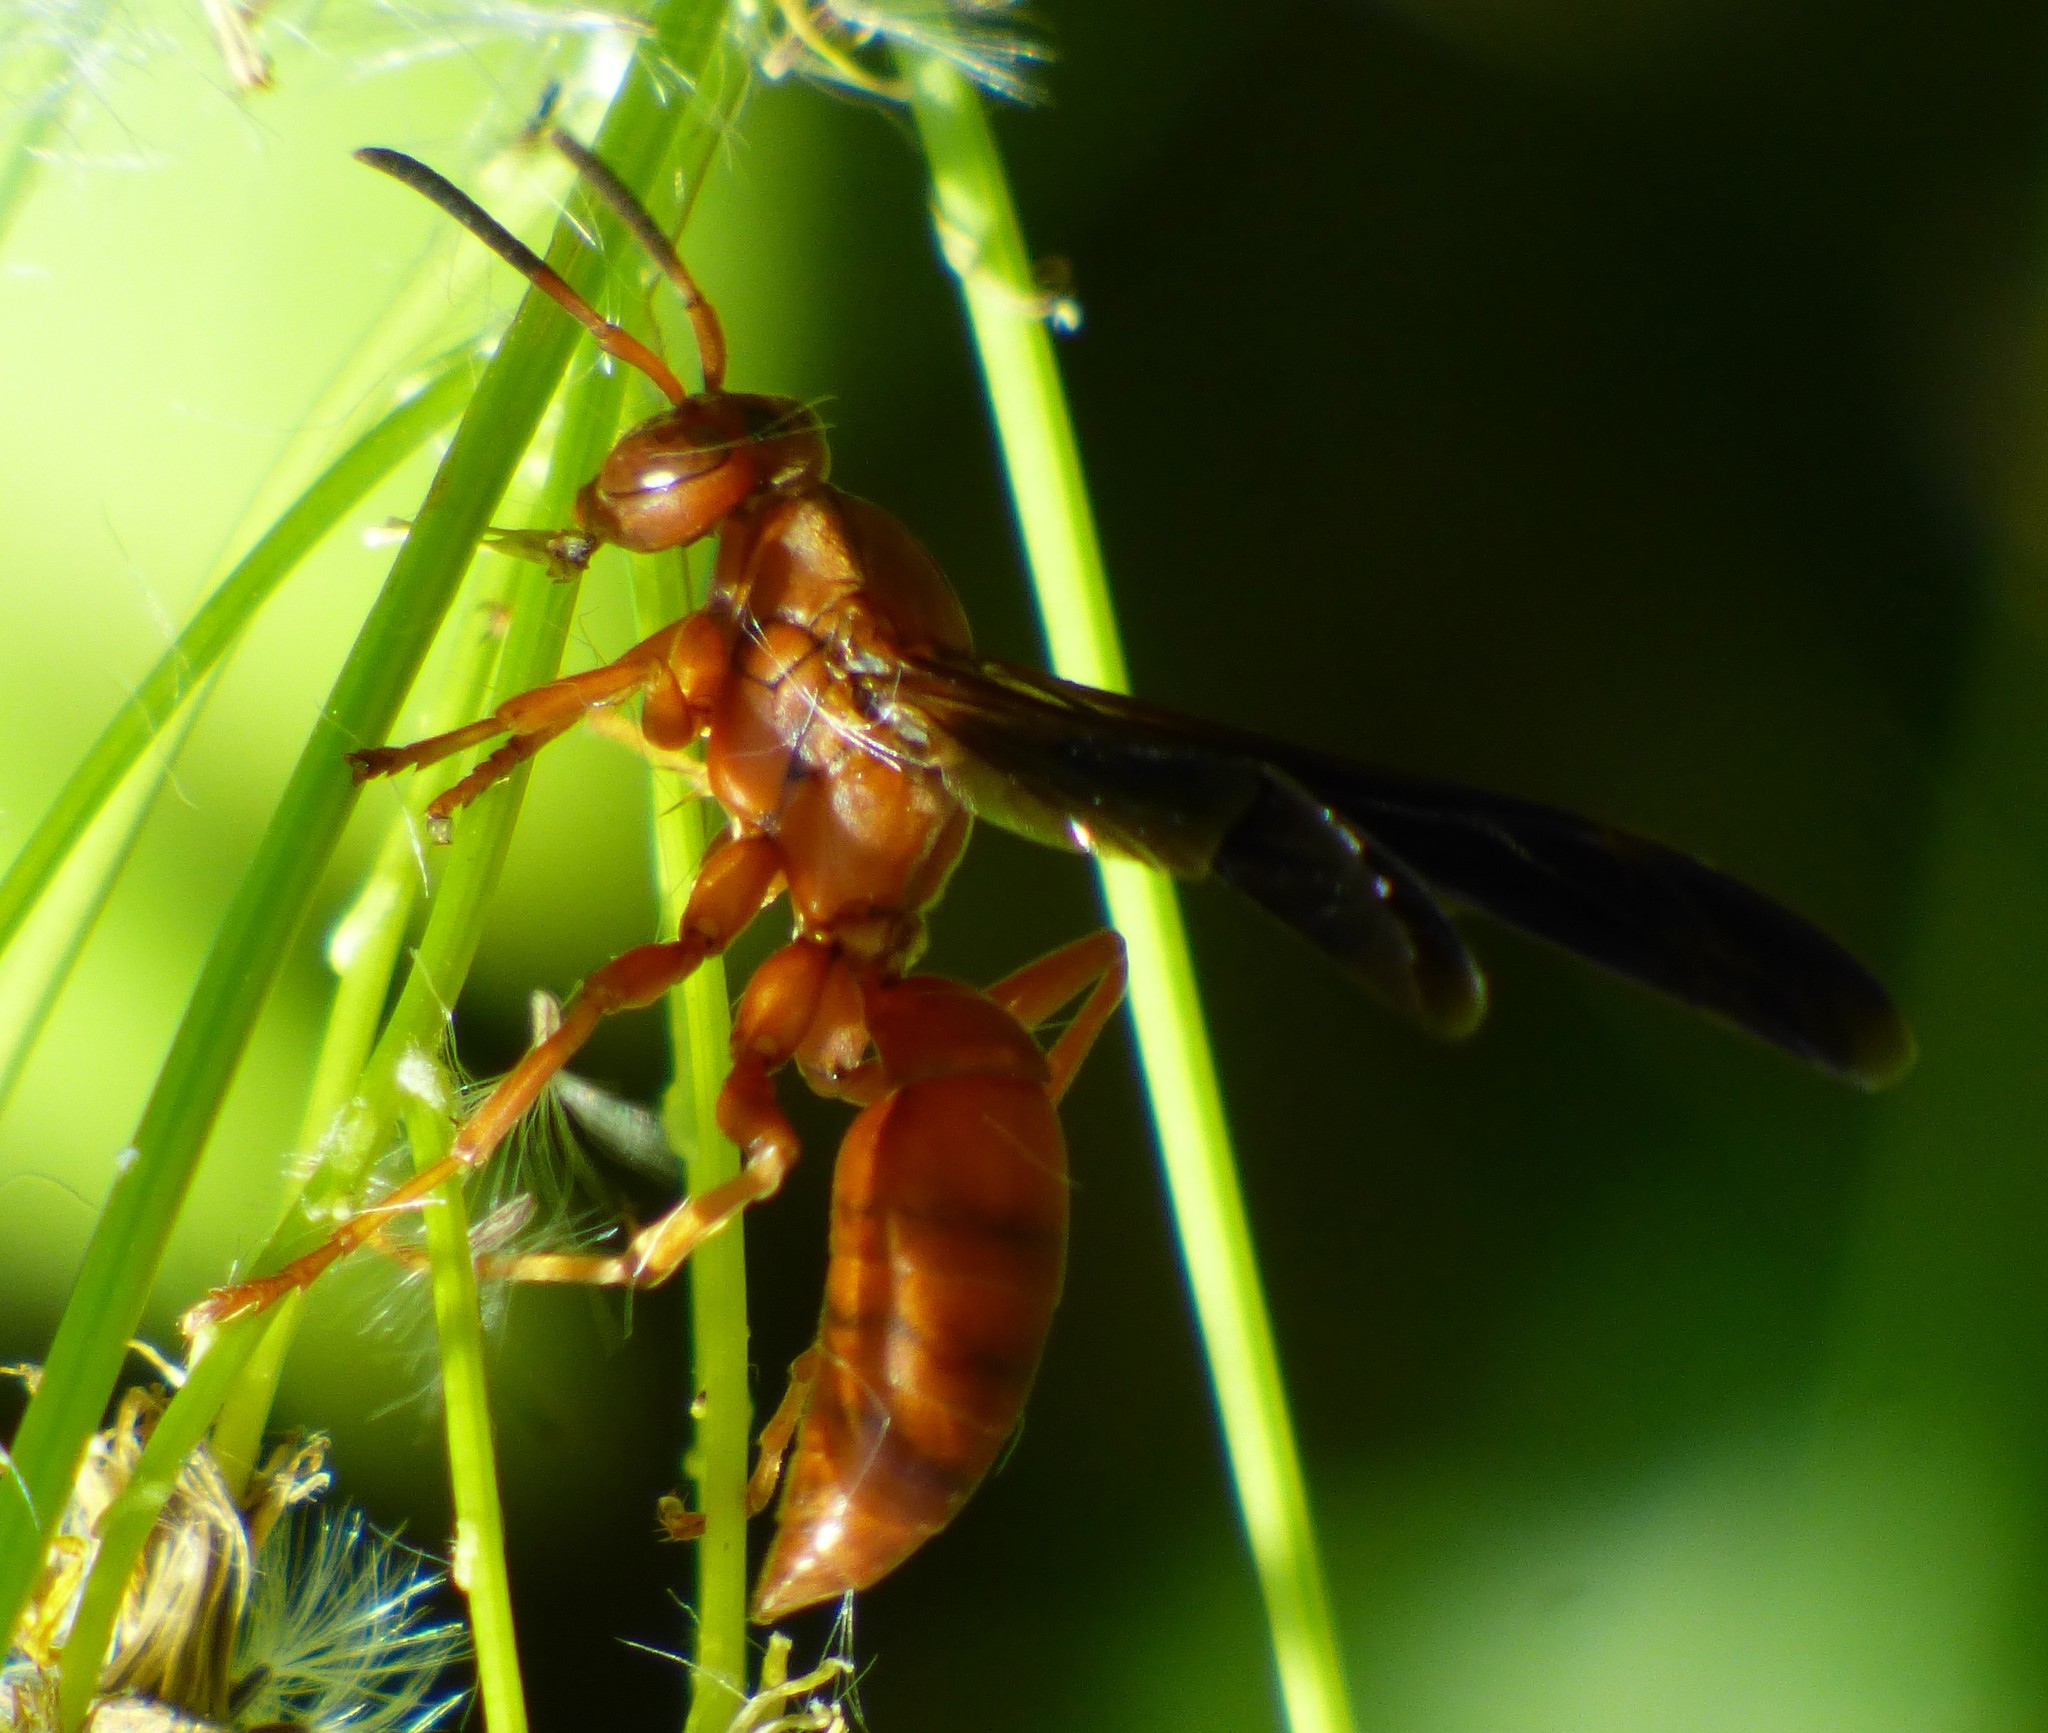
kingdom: Animalia
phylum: Arthropoda
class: Insecta
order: Hymenoptera
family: Eumenidae
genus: Polistes
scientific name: Polistes carolina
